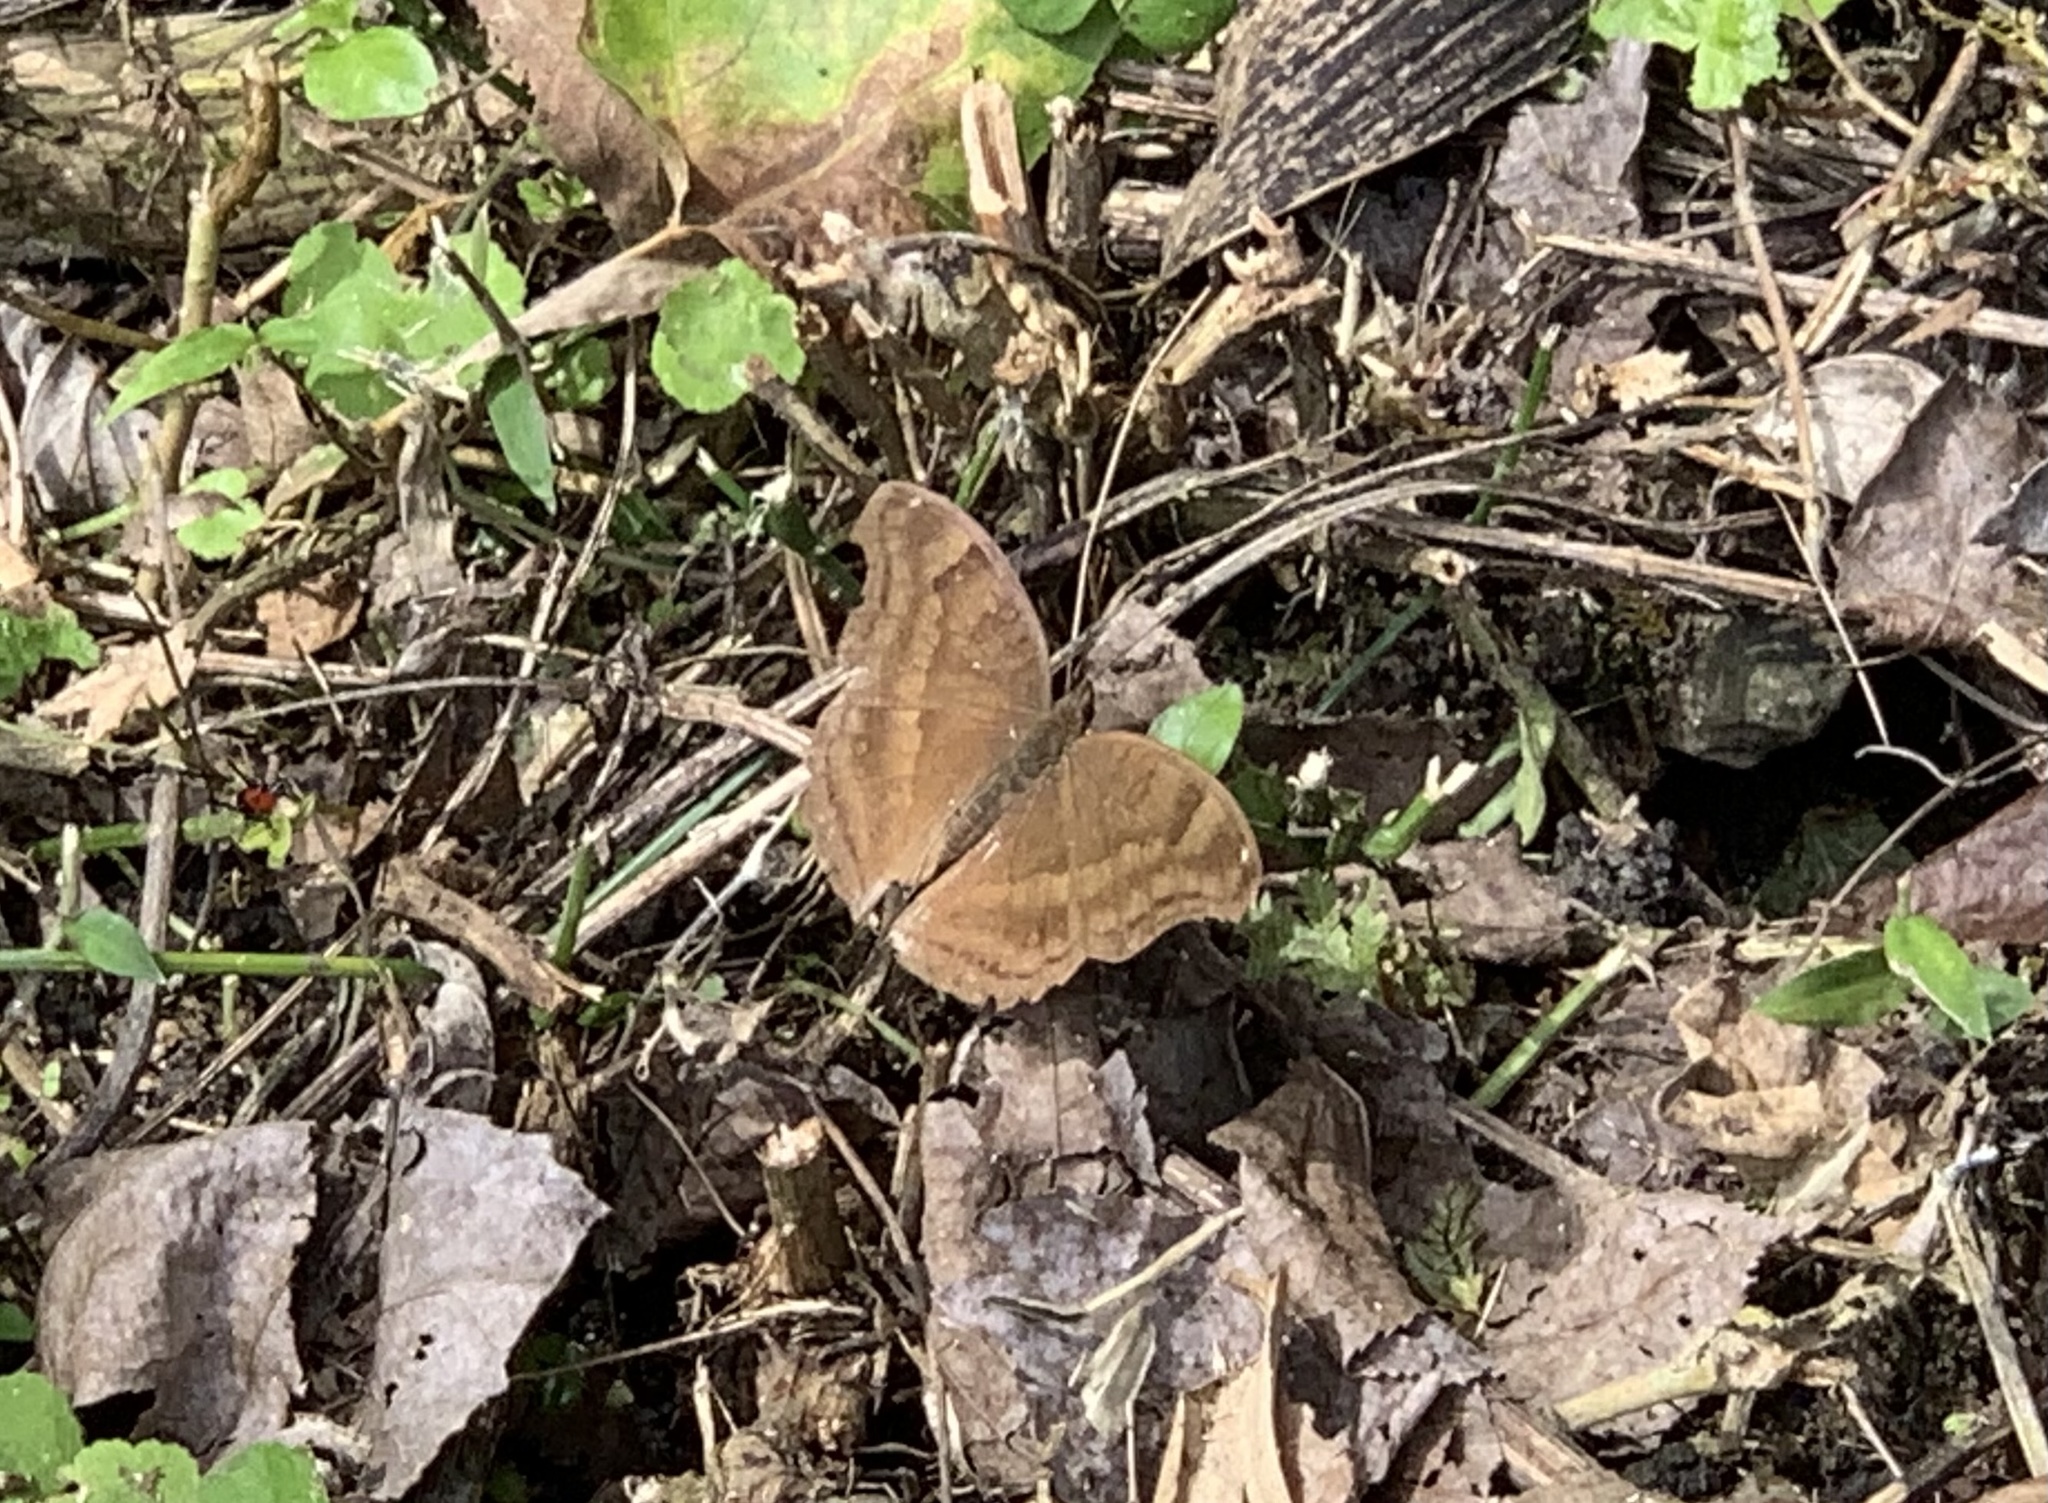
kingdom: Animalia
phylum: Arthropoda
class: Insecta
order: Lepidoptera
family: Nymphalidae
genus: Junonia
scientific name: Junonia iphita
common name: Chocolate pansy
